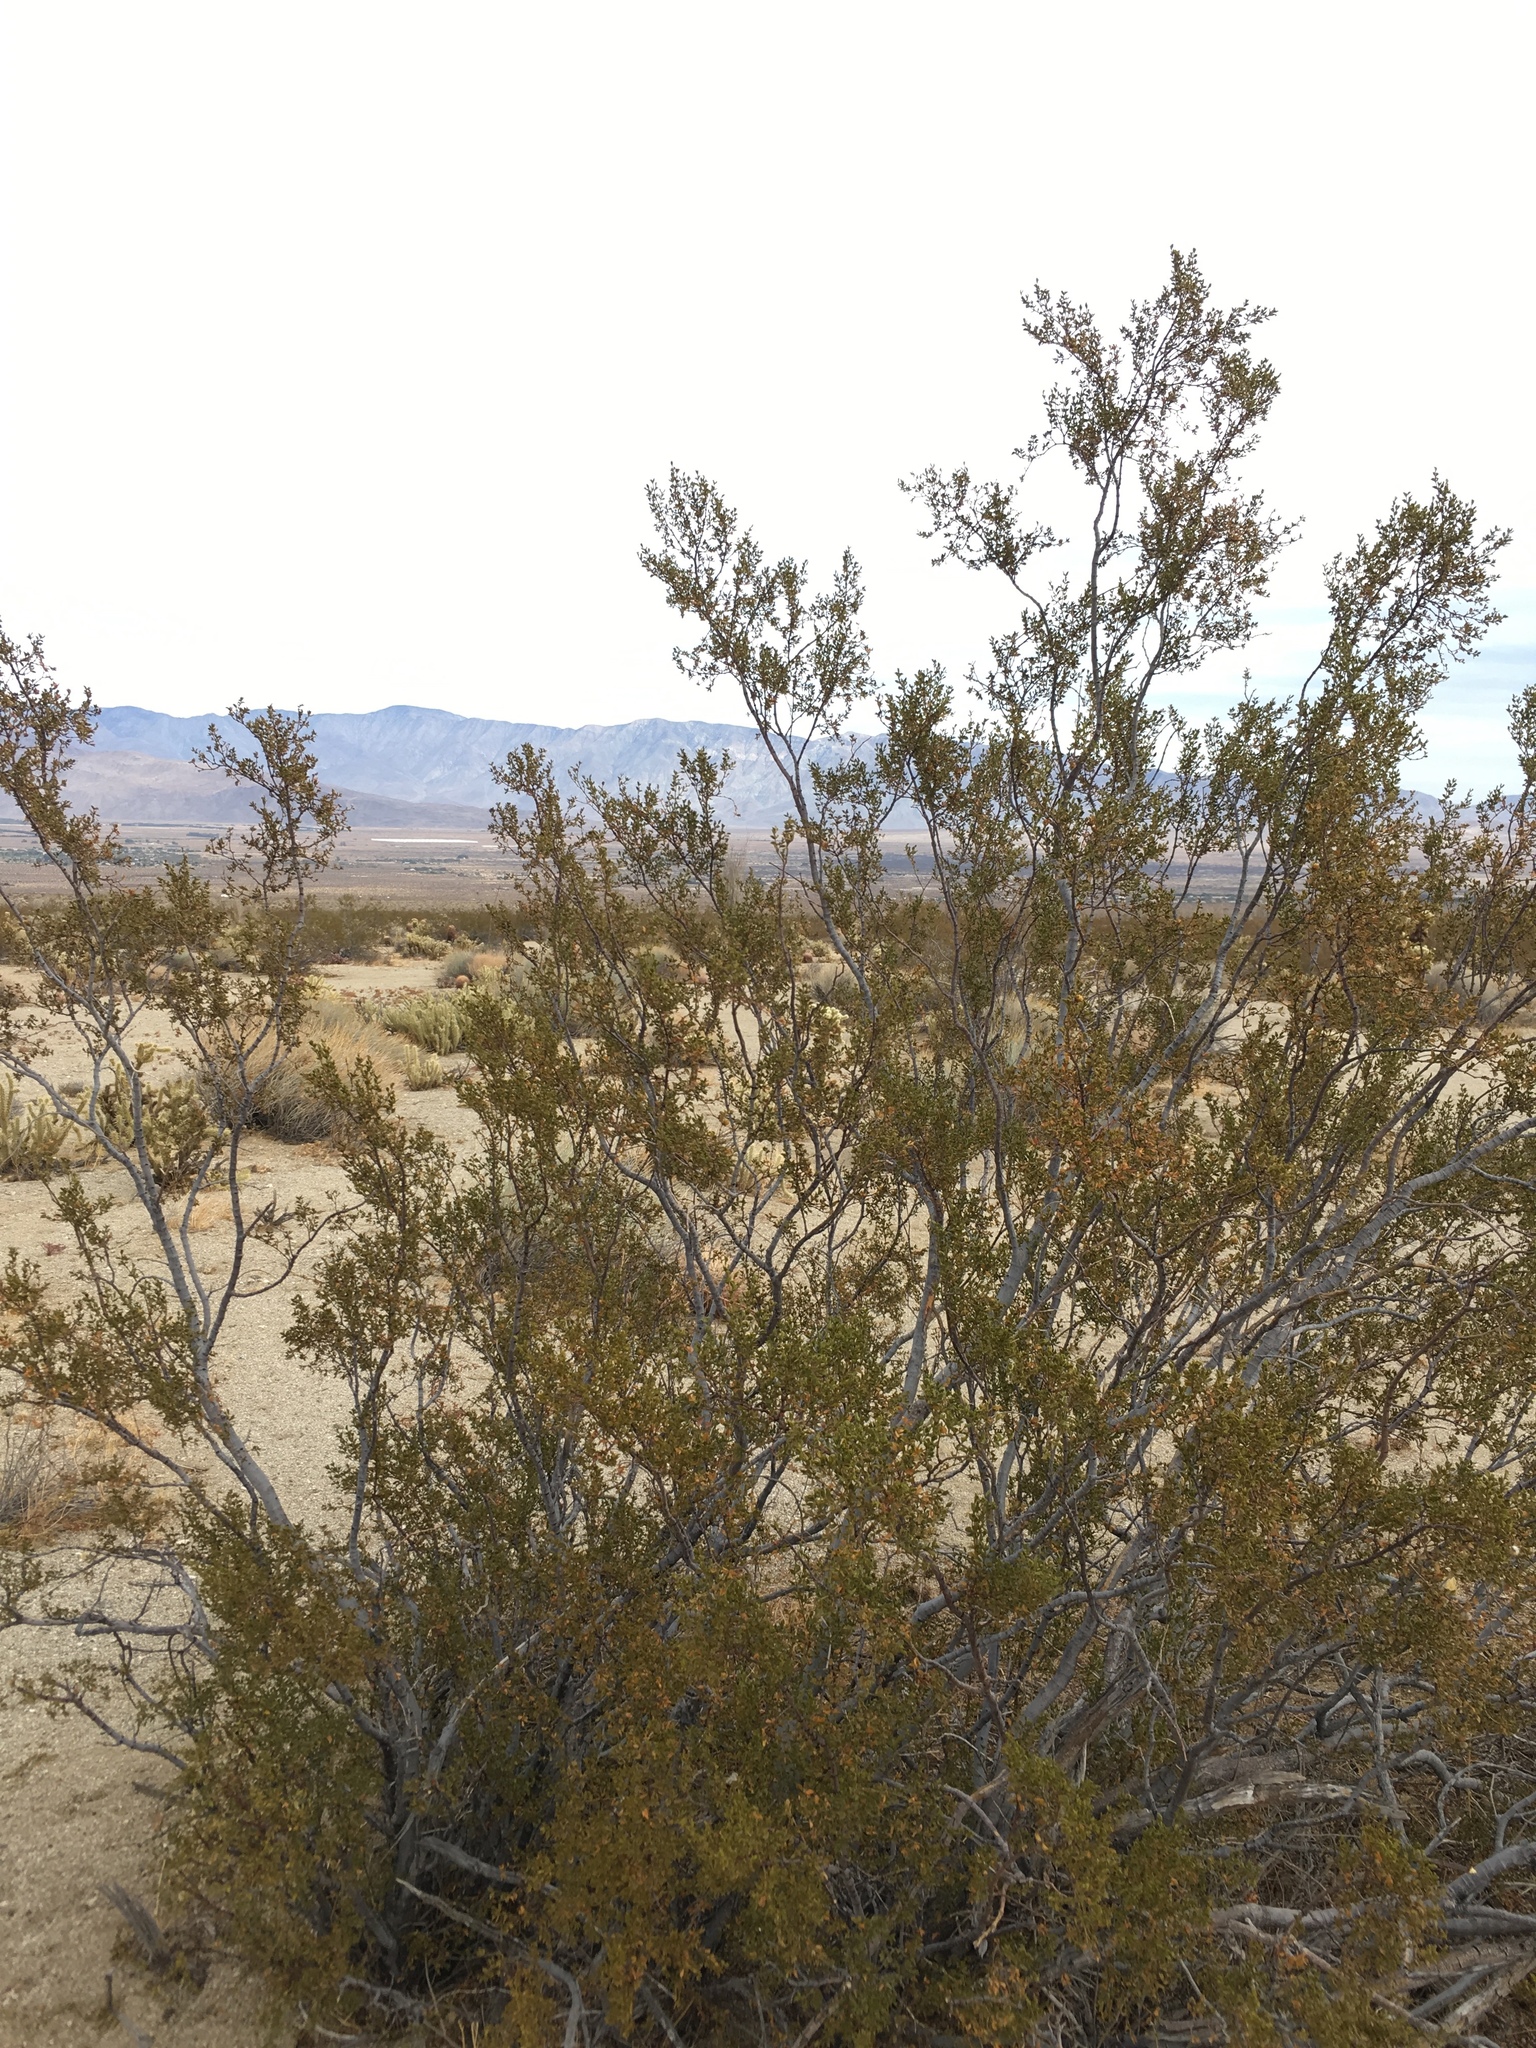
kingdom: Plantae
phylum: Tracheophyta
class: Magnoliopsida
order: Zygophyllales
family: Zygophyllaceae
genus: Larrea
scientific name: Larrea tridentata
